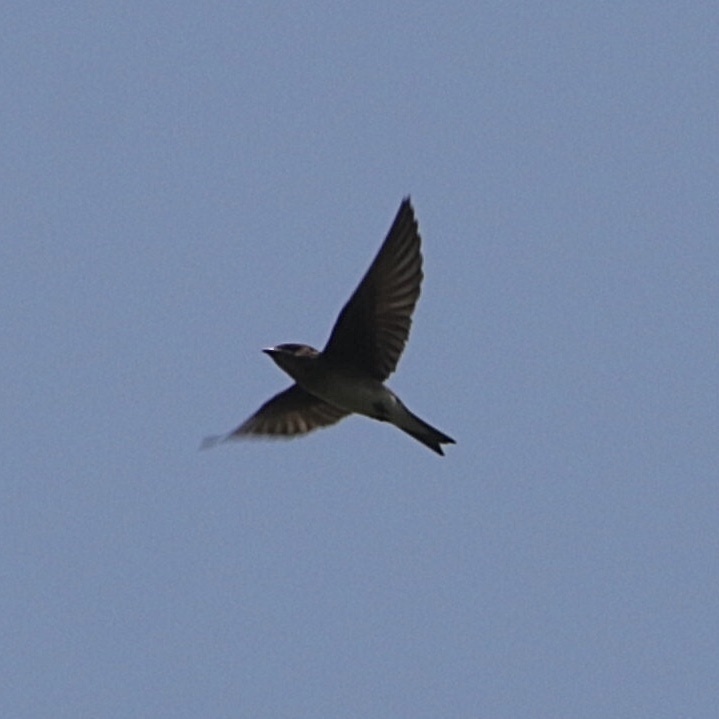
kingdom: Animalia
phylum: Chordata
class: Aves
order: Passeriformes
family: Hirundinidae
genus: Progne
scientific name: Progne chalybea
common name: Grey-breasted martin
